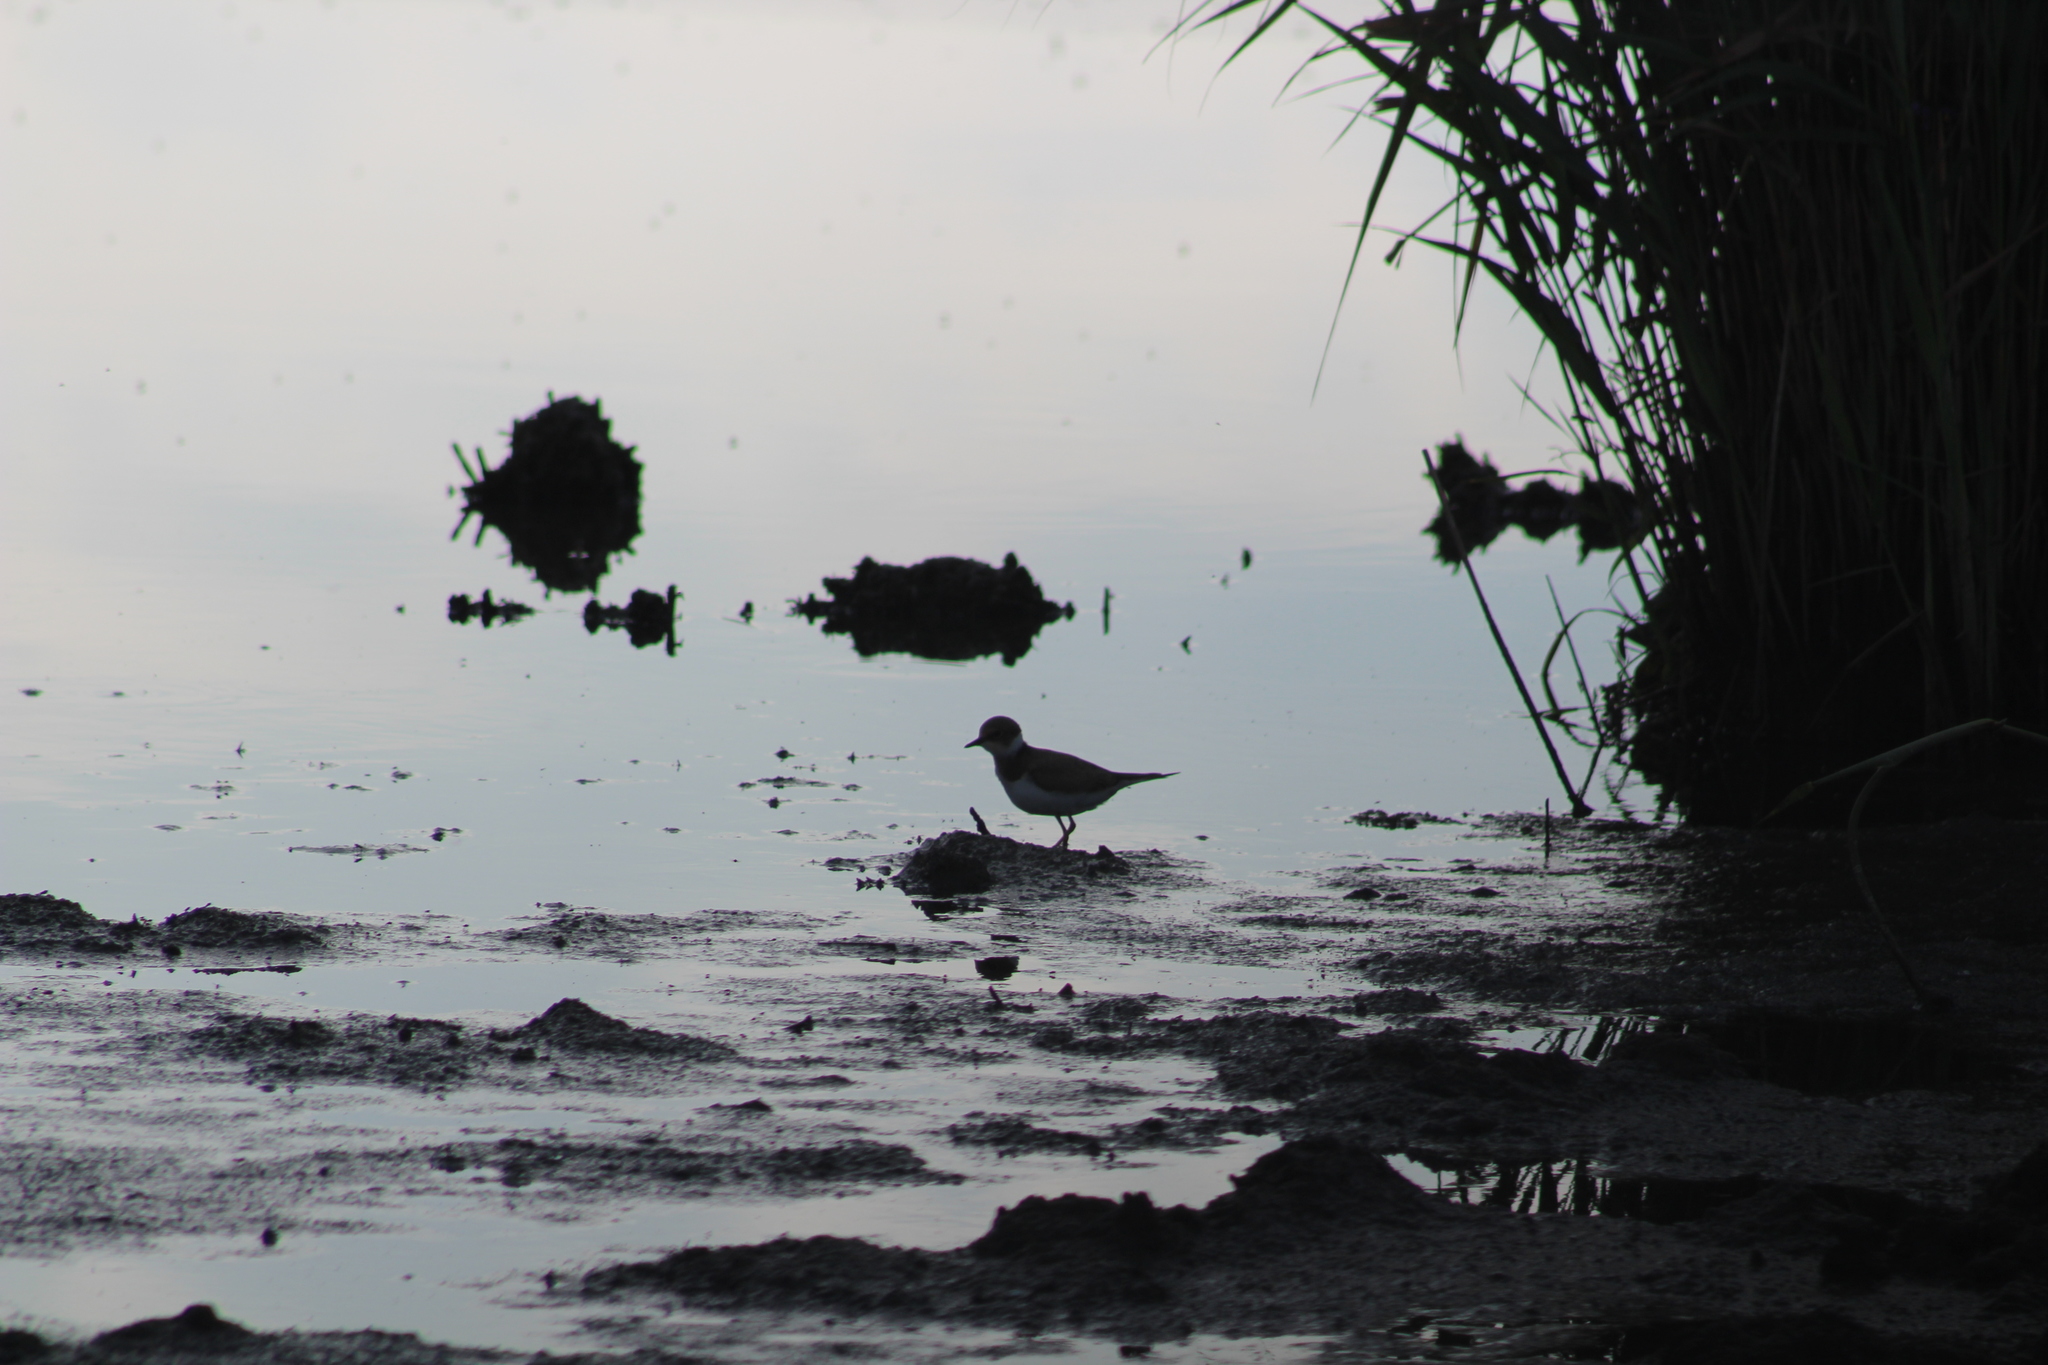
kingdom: Animalia
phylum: Chordata
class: Aves
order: Charadriiformes
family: Charadriidae
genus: Charadrius
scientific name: Charadrius dubius
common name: Little ringed plover
